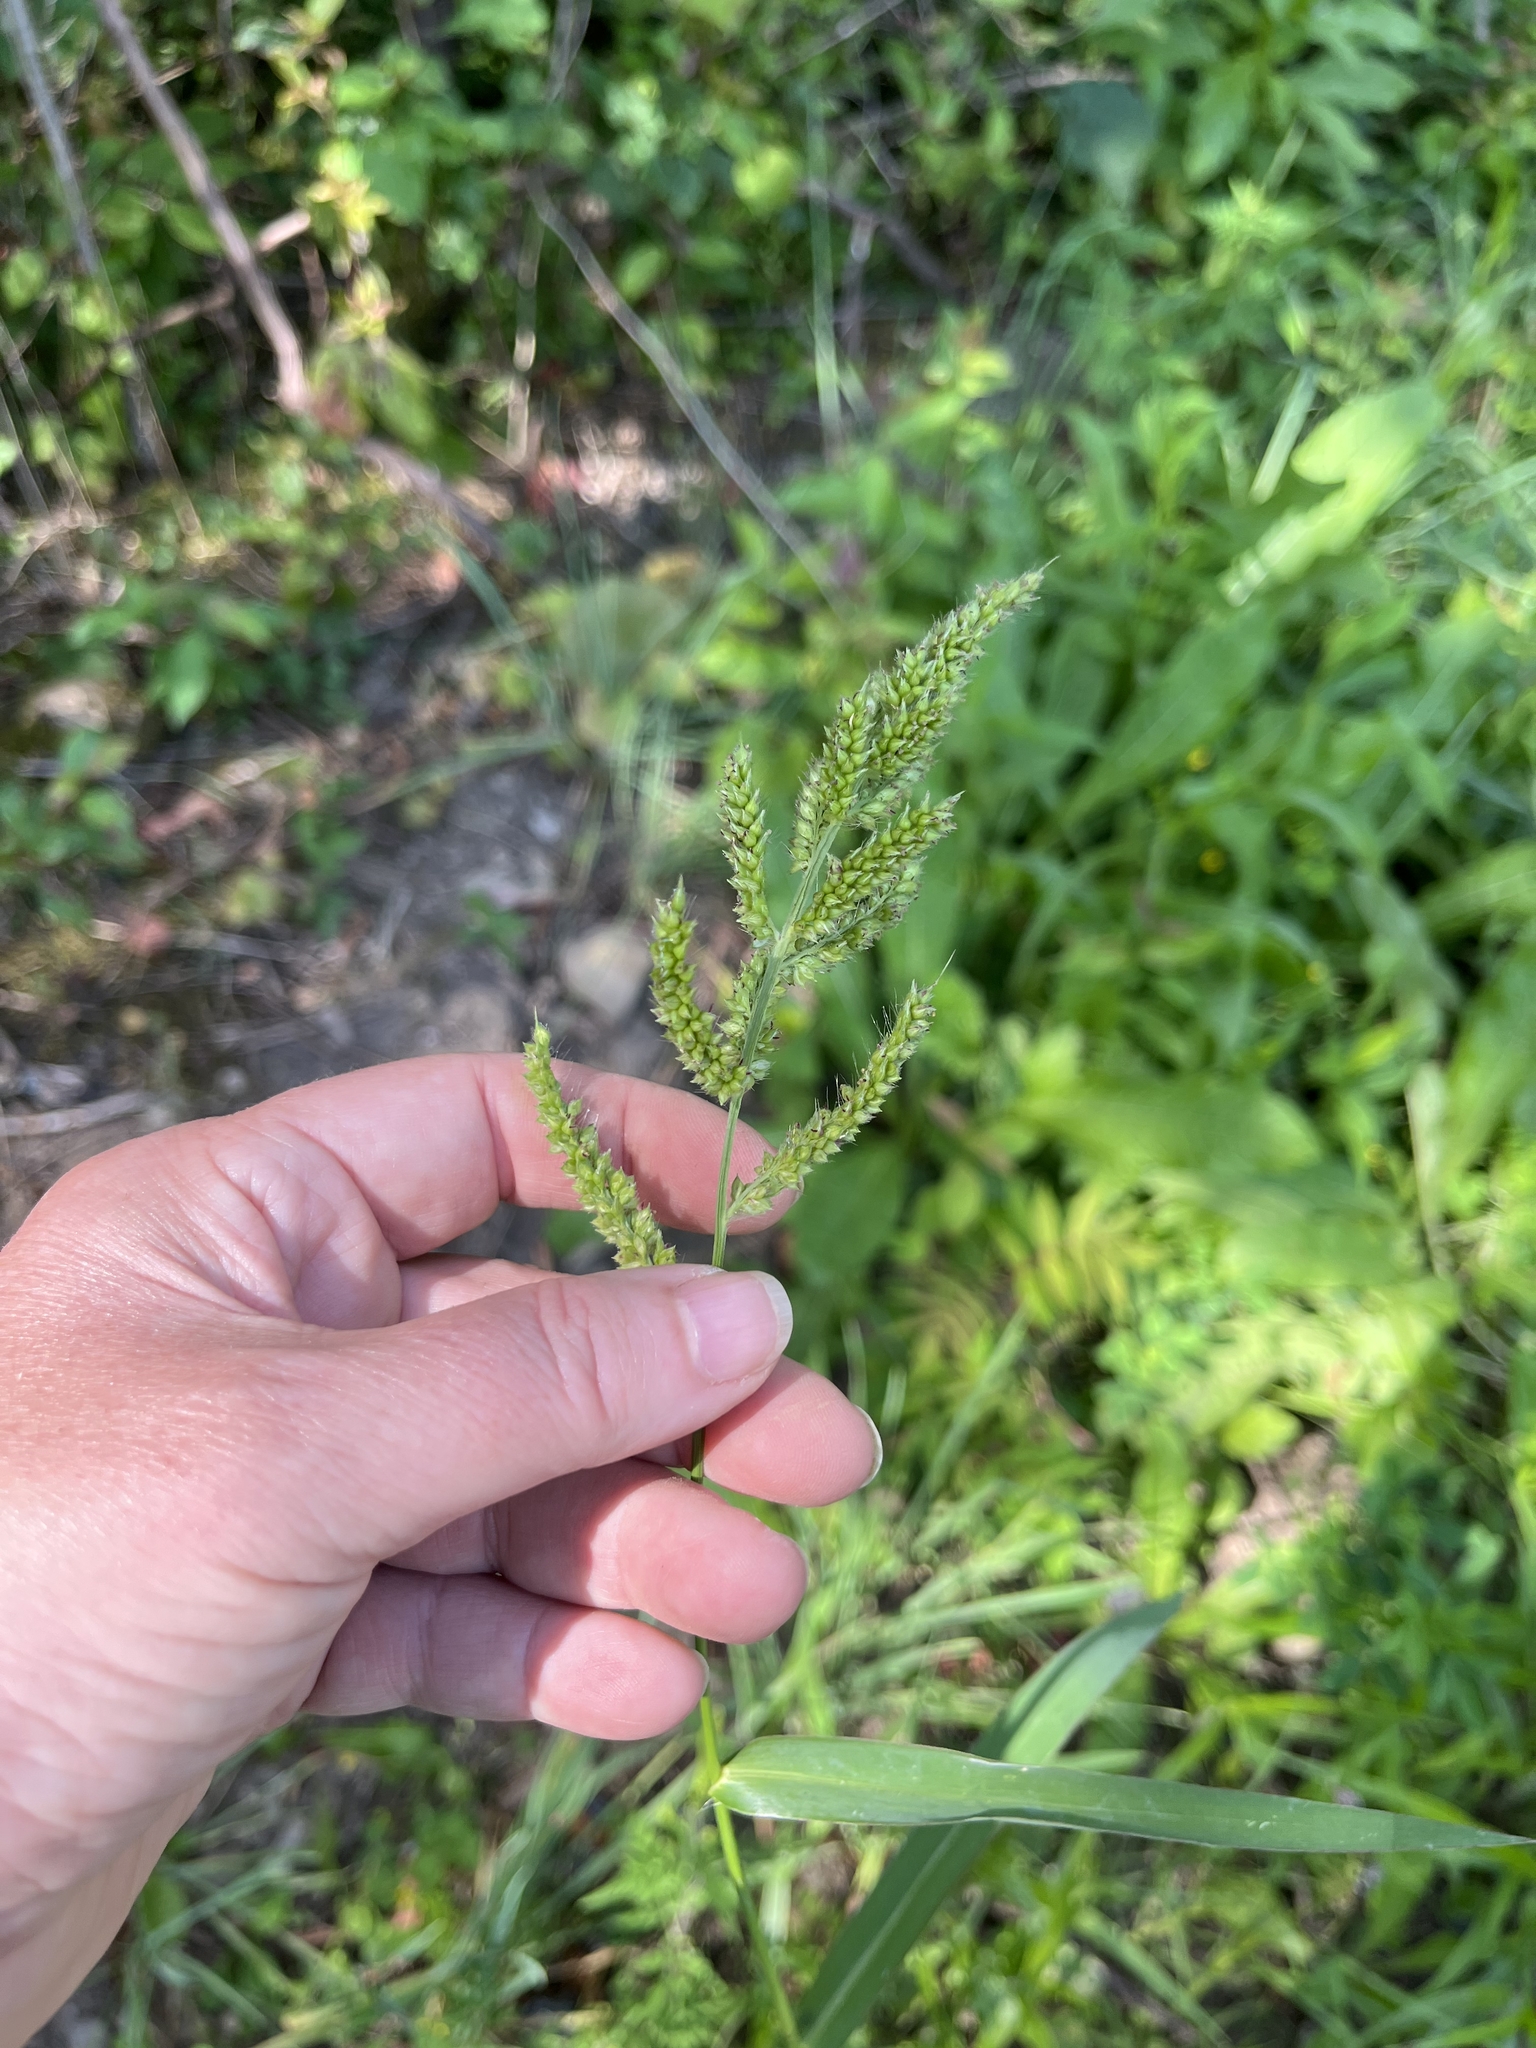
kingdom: Plantae
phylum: Tracheophyta
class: Liliopsida
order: Poales
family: Poaceae
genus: Echinochloa
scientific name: Echinochloa crus-galli
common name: Cockspur
